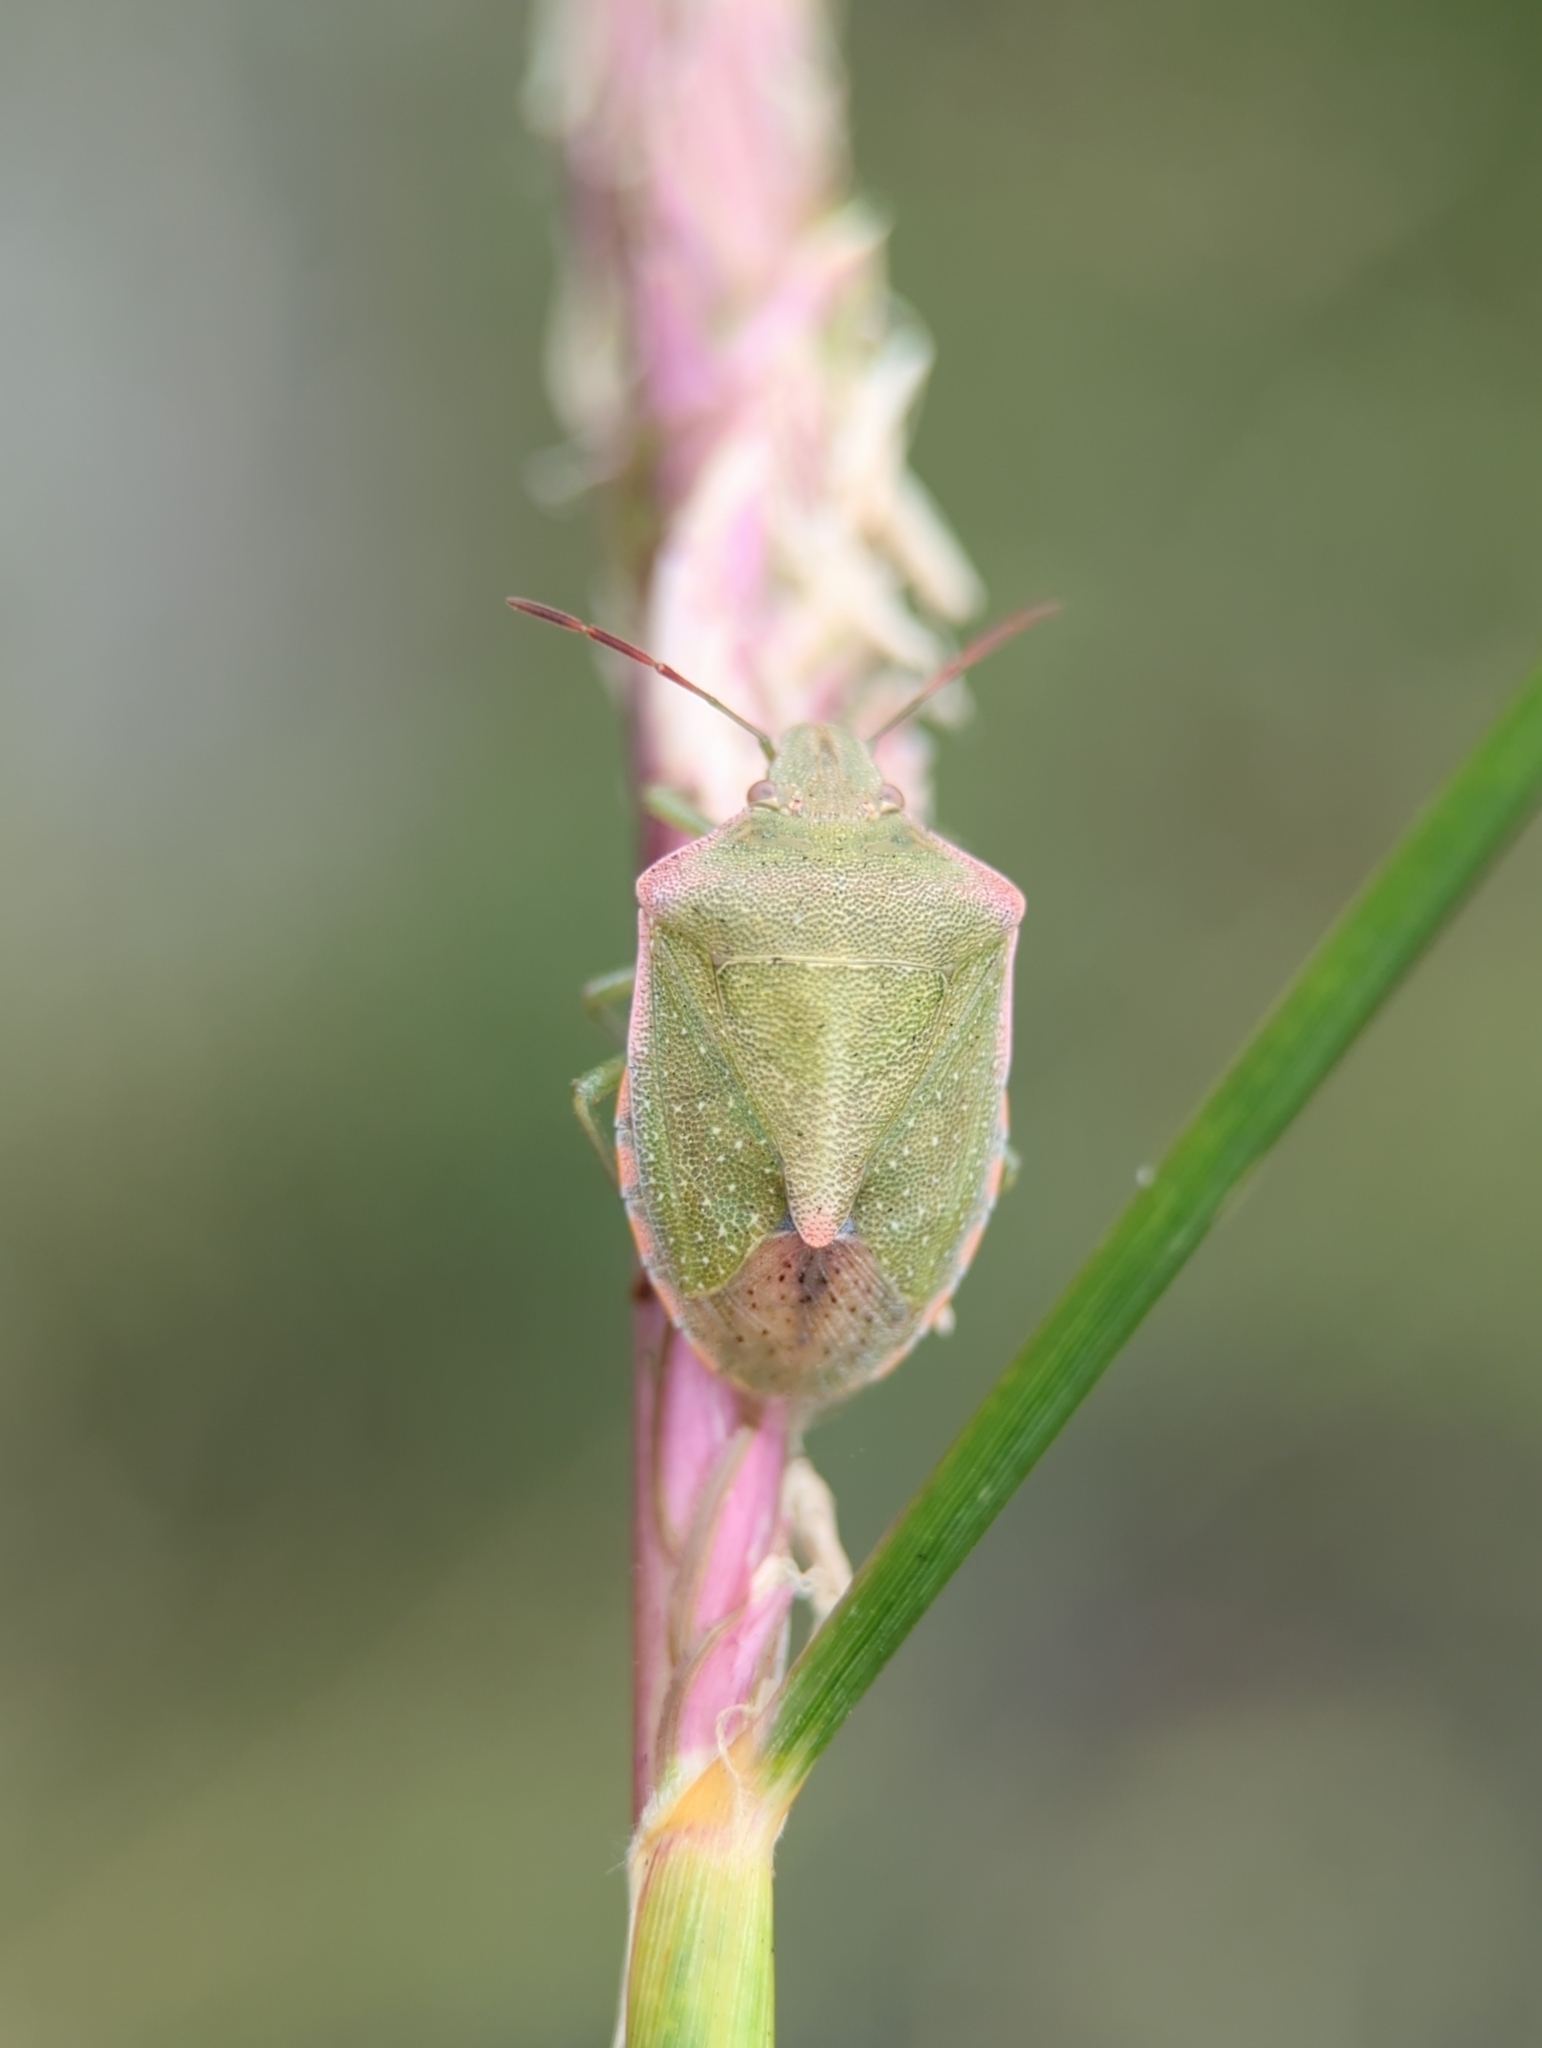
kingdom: Animalia
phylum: Arthropoda
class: Insecta
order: Hemiptera
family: Pentatomidae
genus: Thyanta
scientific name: Thyanta custator
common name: Stink bug
